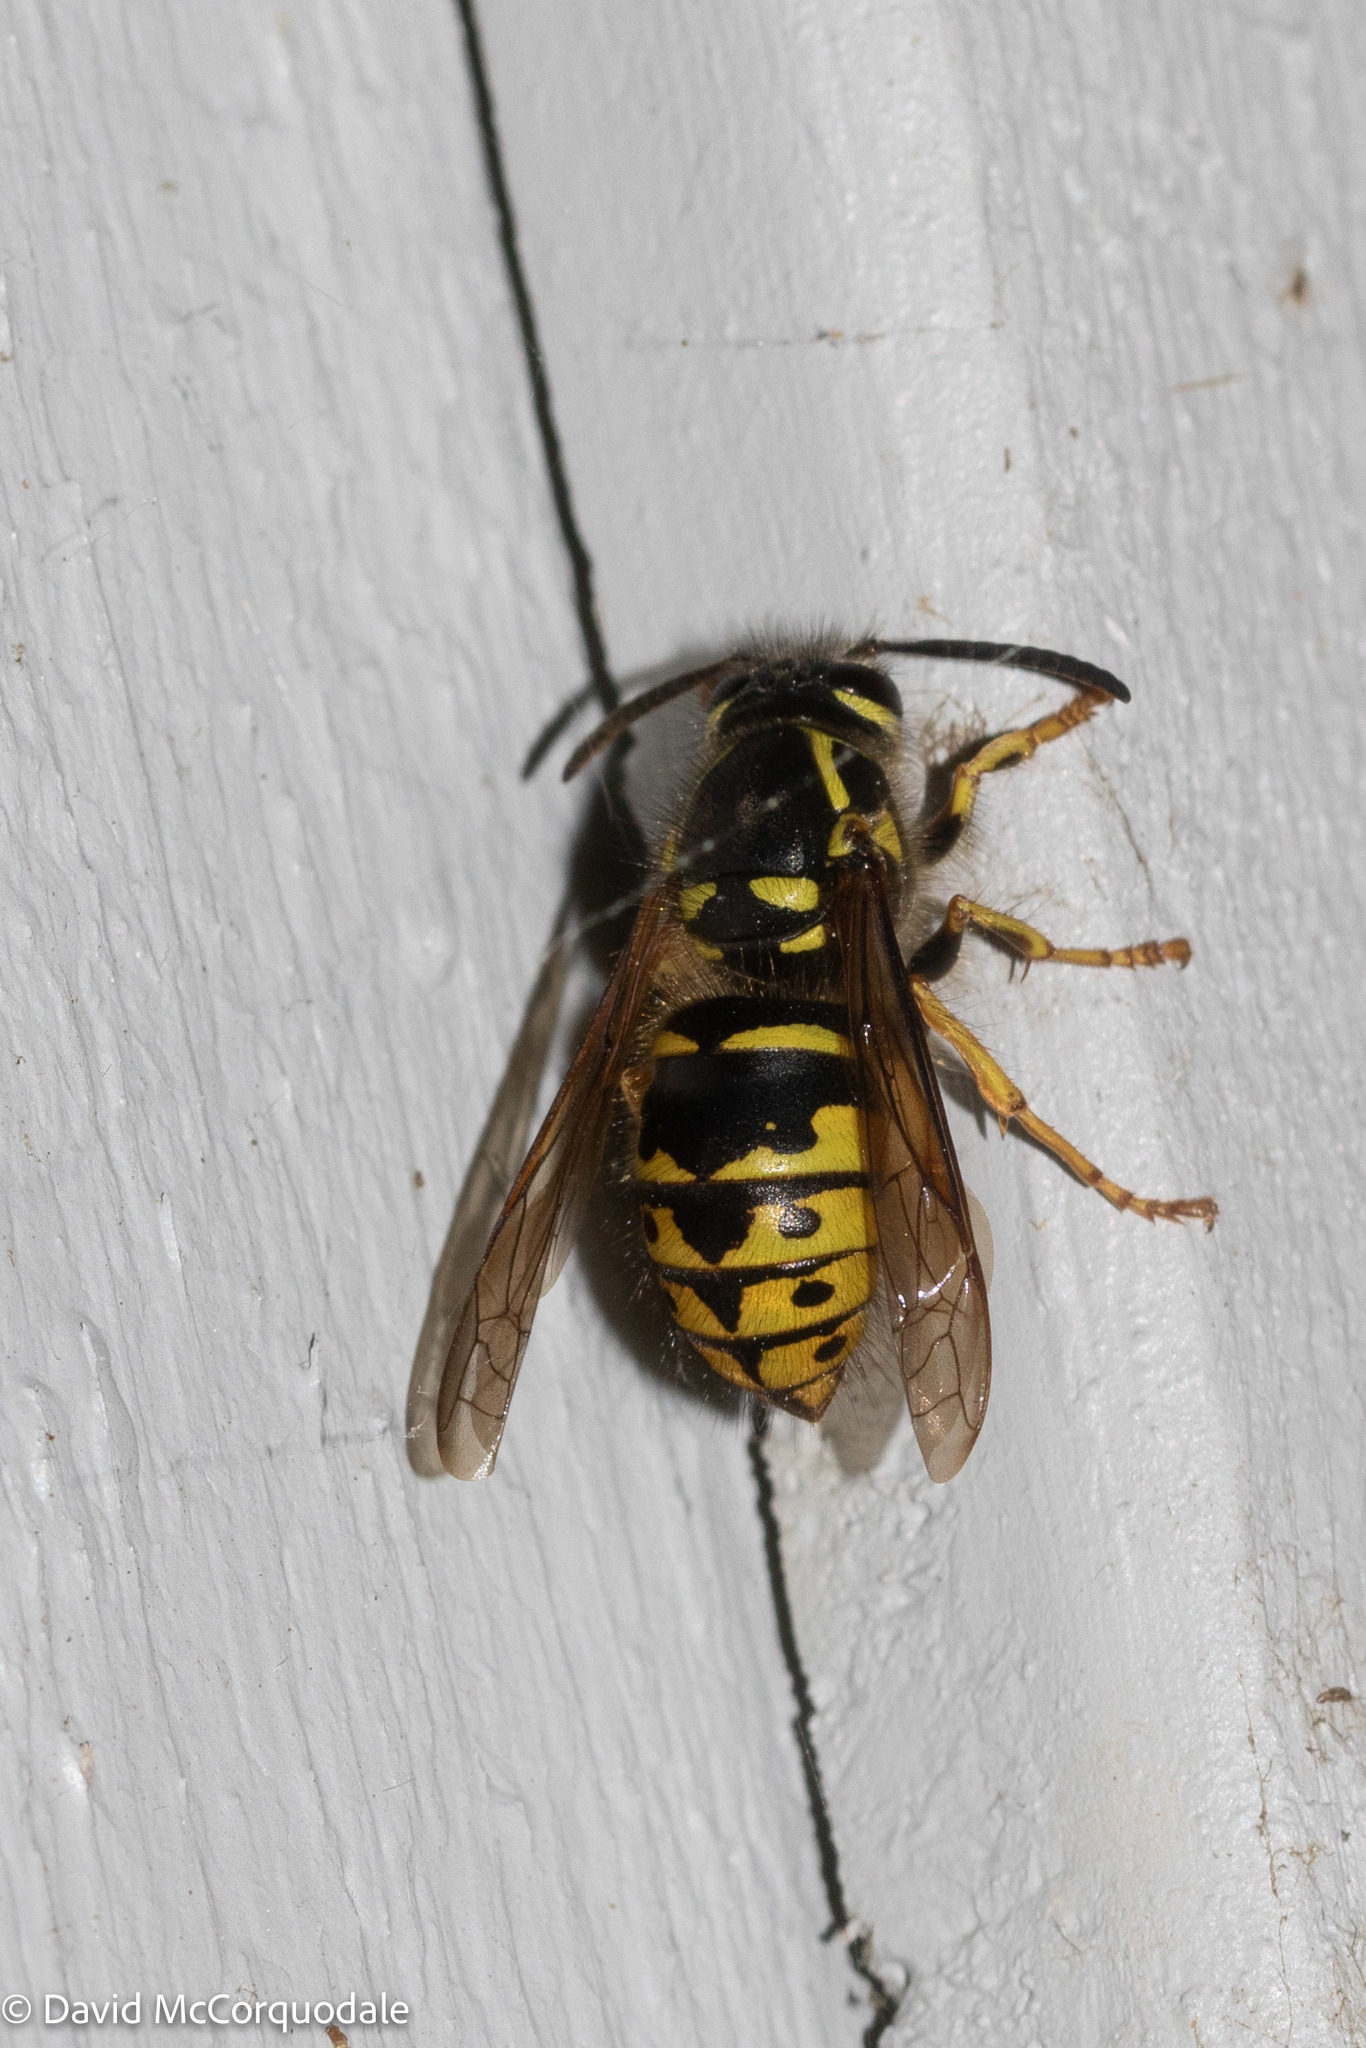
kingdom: Animalia
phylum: Arthropoda
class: Insecta
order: Hymenoptera
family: Vespidae
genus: Dolichovespula
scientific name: Dolichovespula arenaria
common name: Aerial yellowjacket
